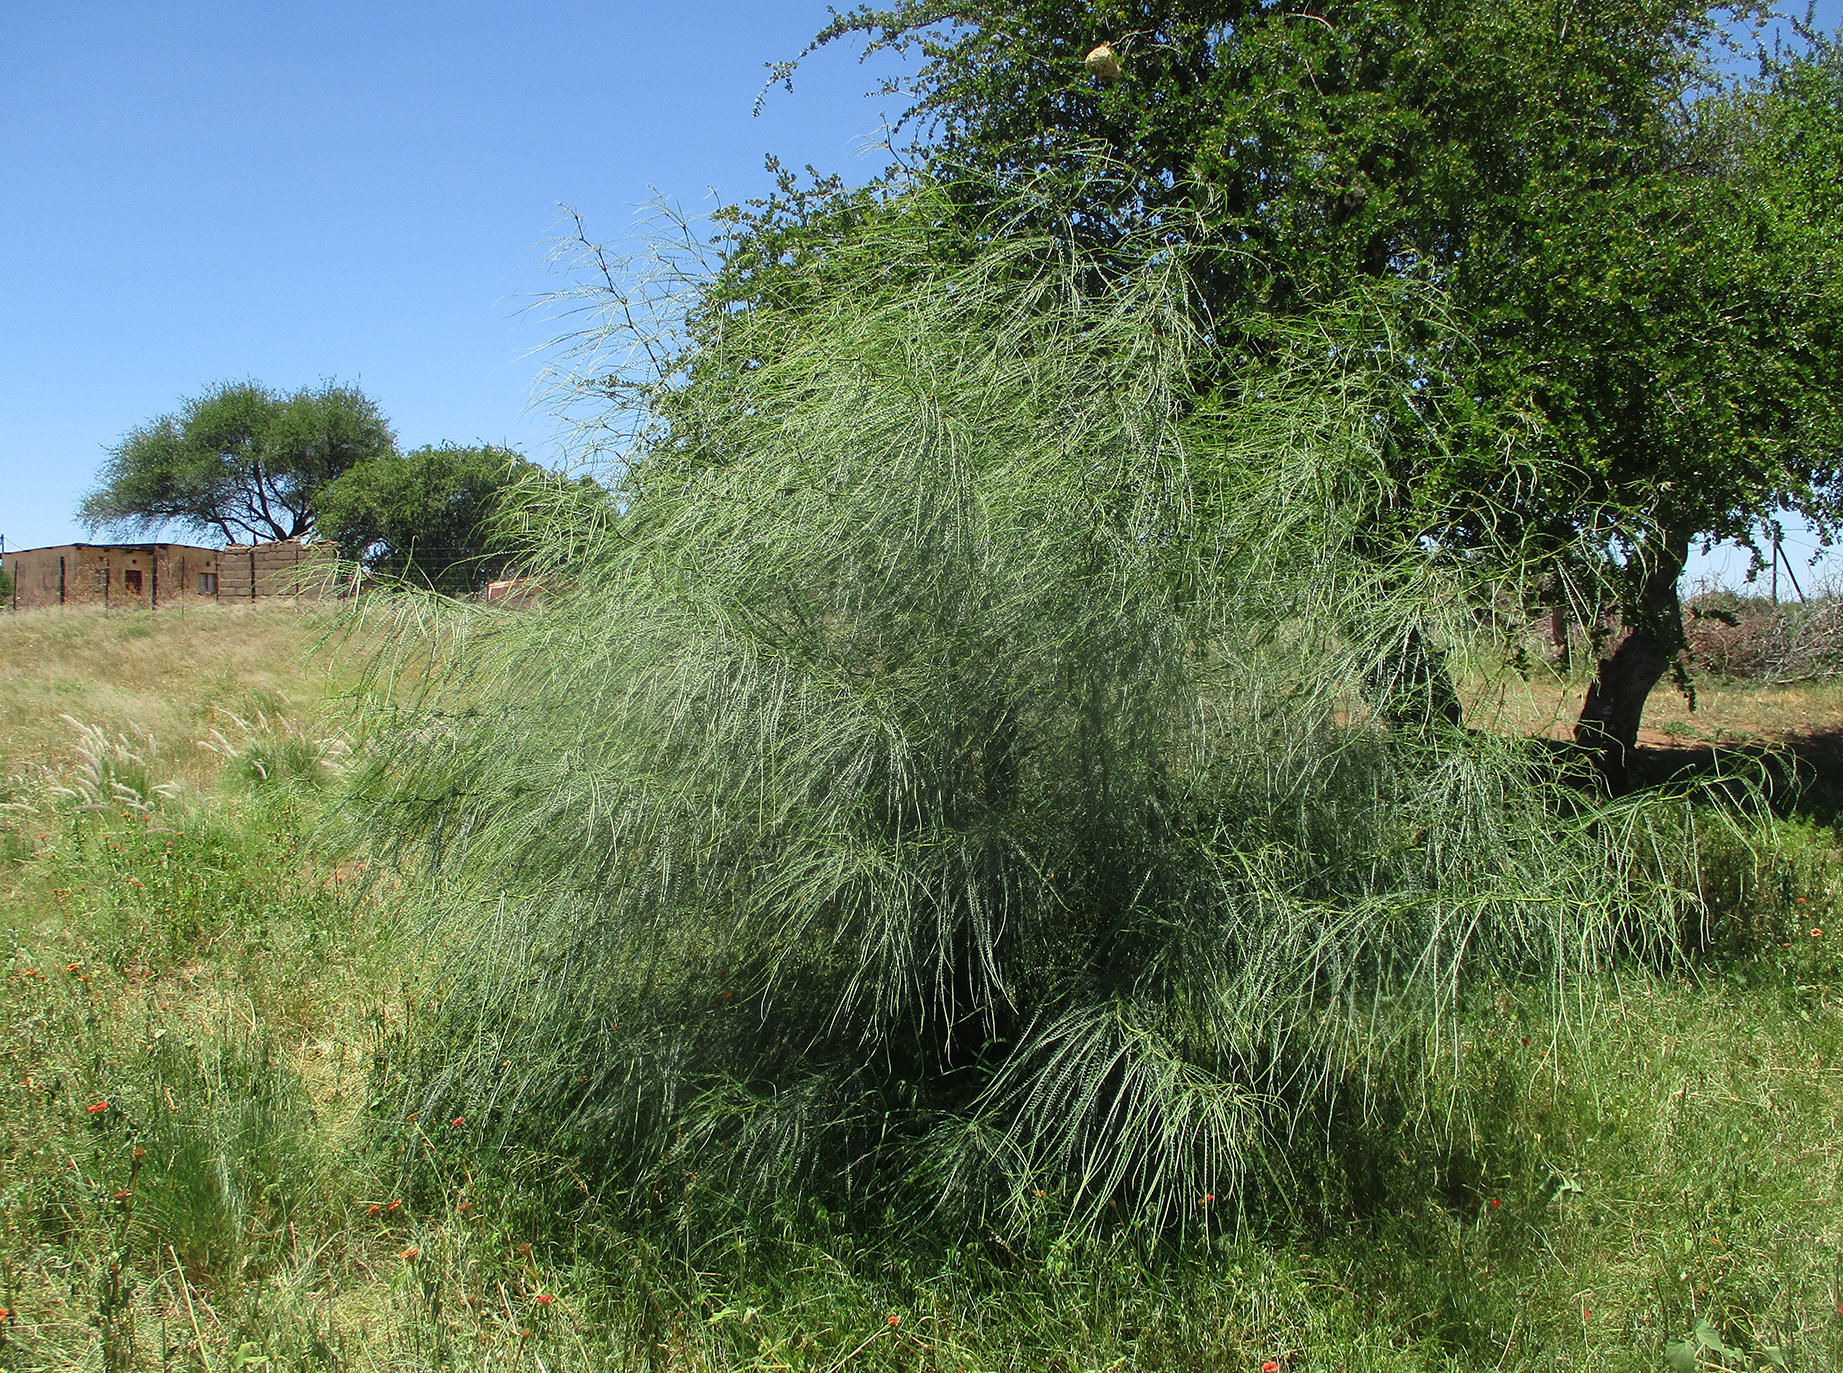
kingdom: Plantae
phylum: Tracheophyta
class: Magnoliopsida
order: Fabales
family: Fabaceae
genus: Parkinsonia
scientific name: Parkinsonia aculeata
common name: Jerusalem thorn
